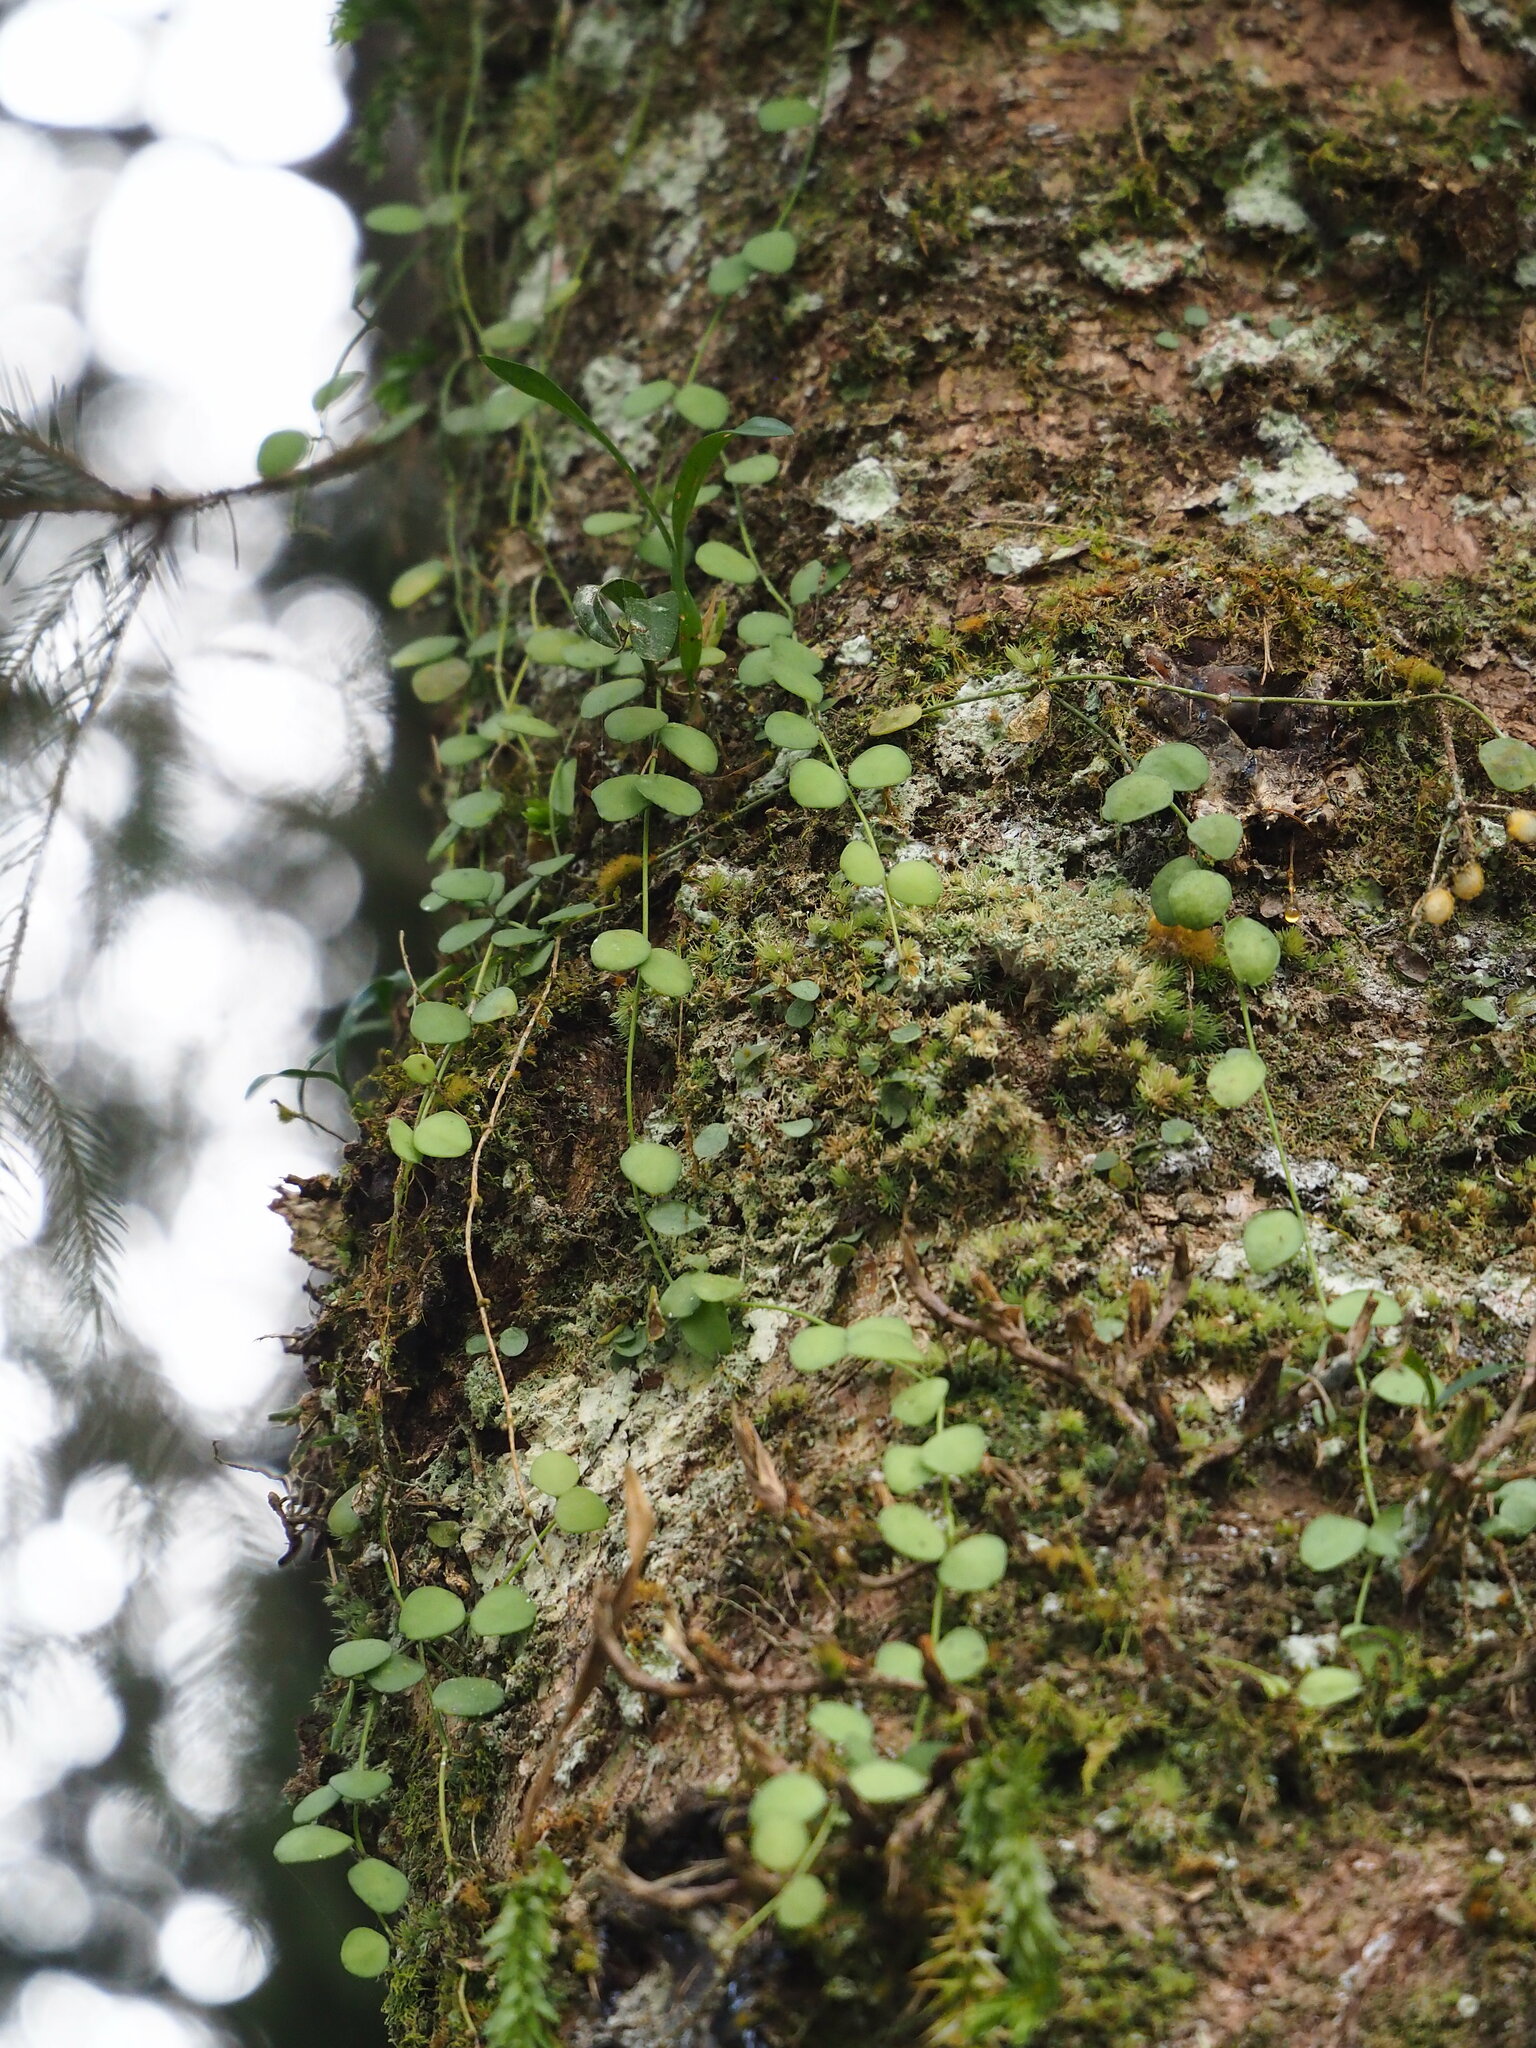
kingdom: Plantae
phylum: Tracheophyta
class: Magnoliopsida
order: Gentianales
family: Apocynaceae
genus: Dischidia
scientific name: Dischidia formosana
